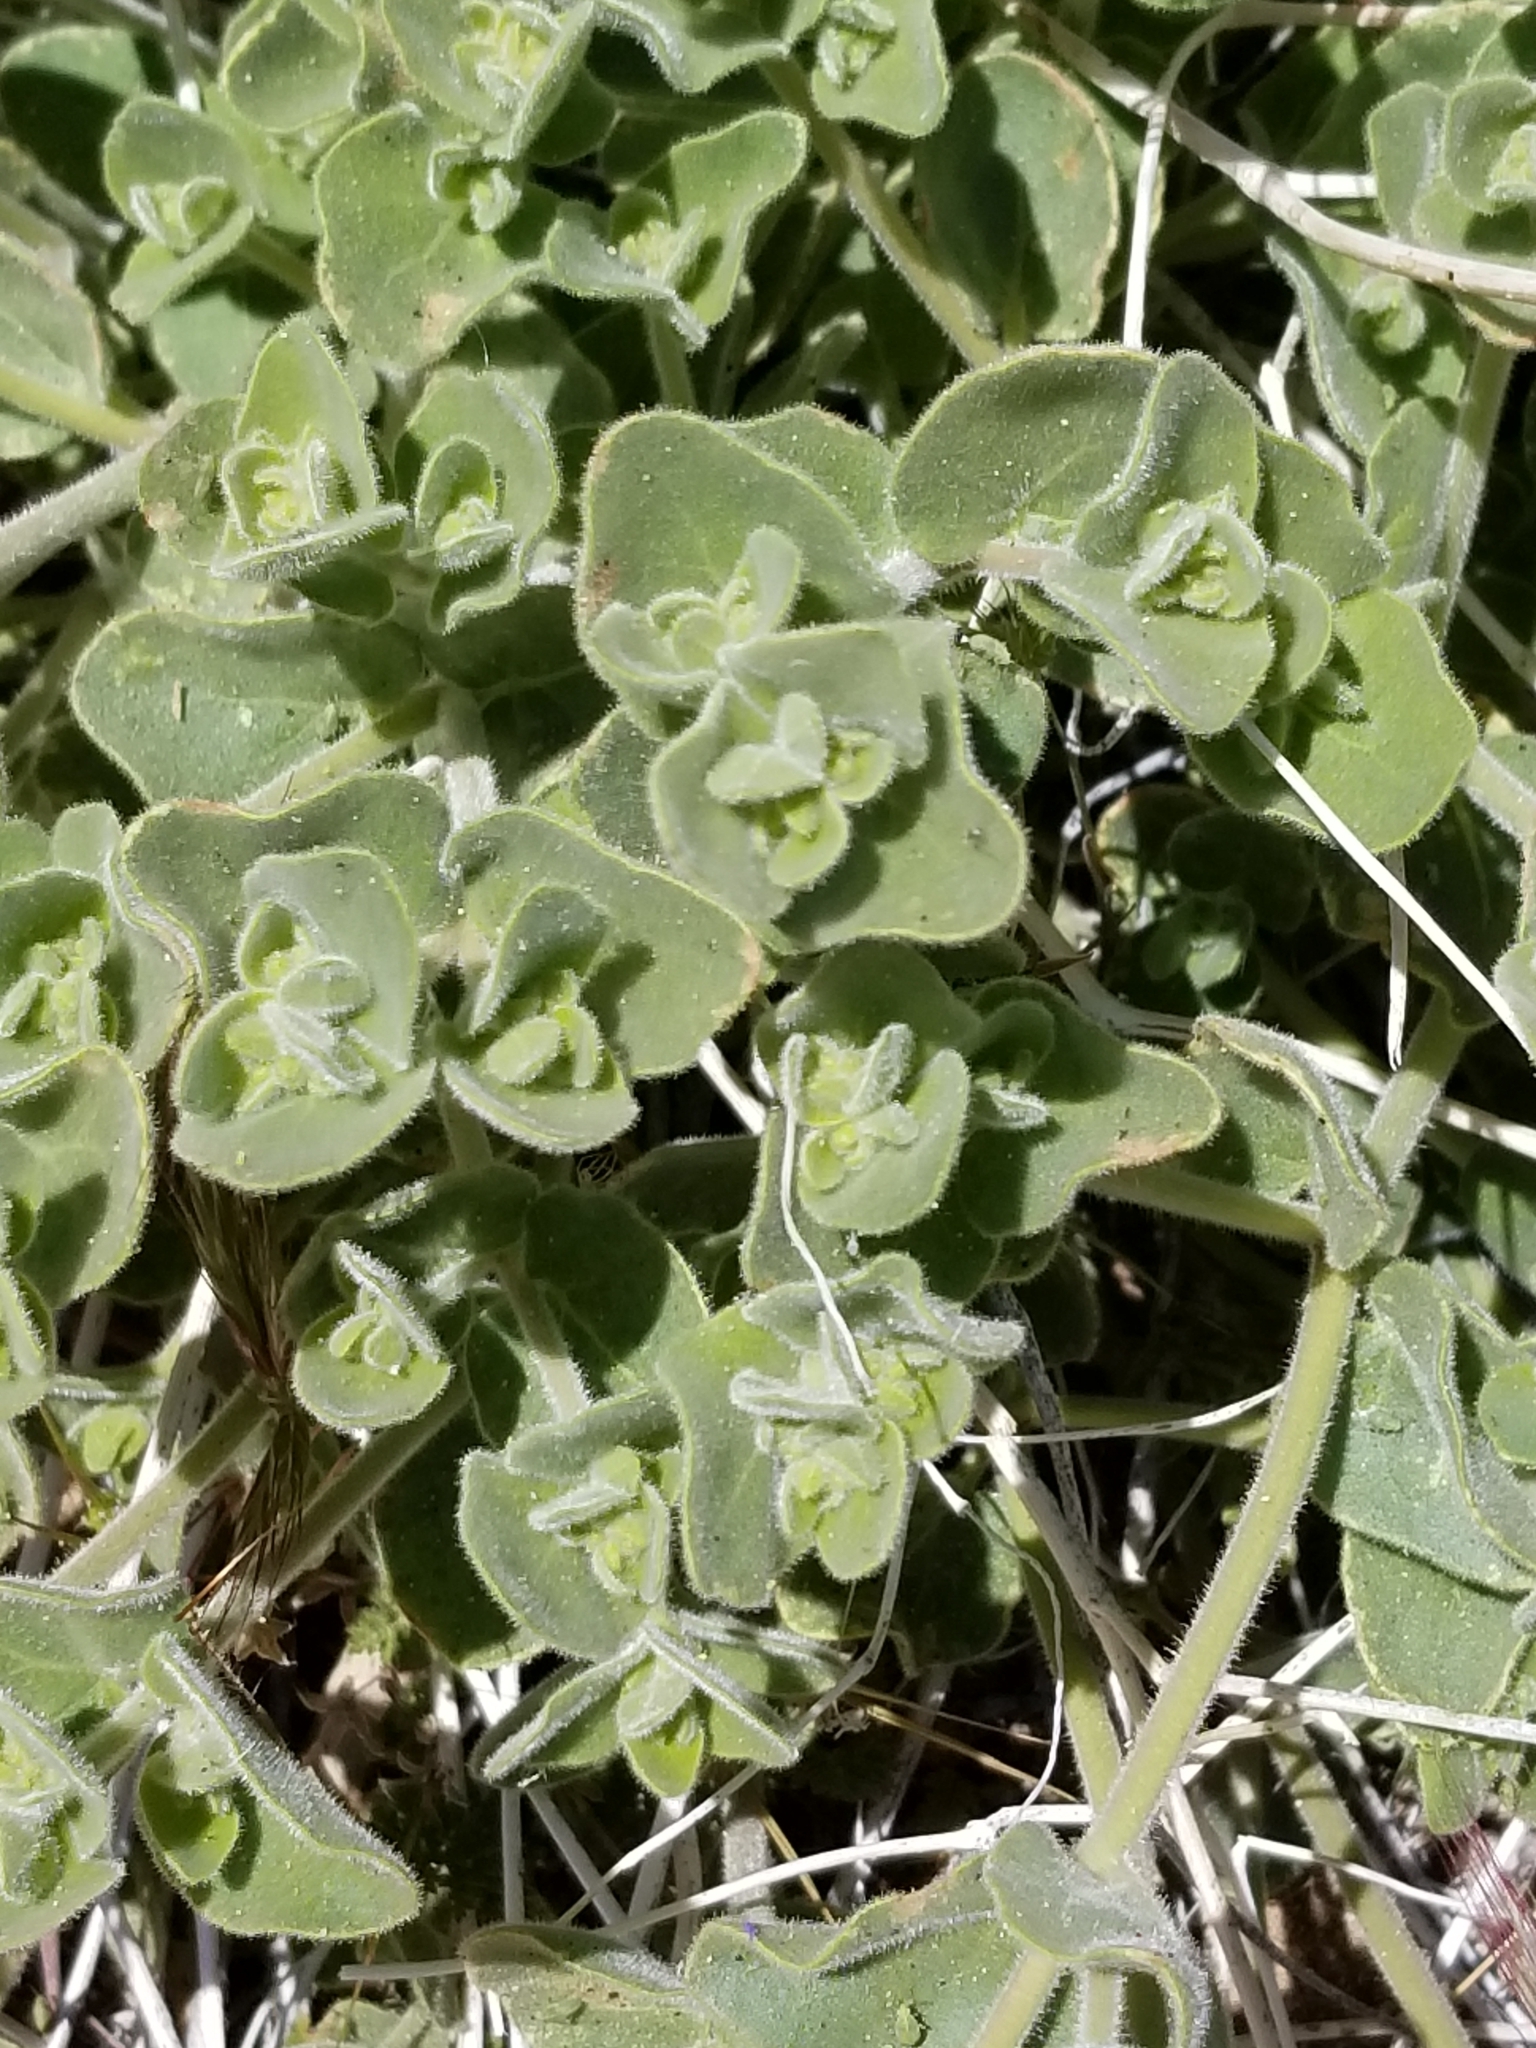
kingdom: Plantae
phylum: Tracheophyta
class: Magnoliopsida
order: Caryophyllales
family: Nyctaginaceae
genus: Mirabilis
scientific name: Mirabilis laevis
